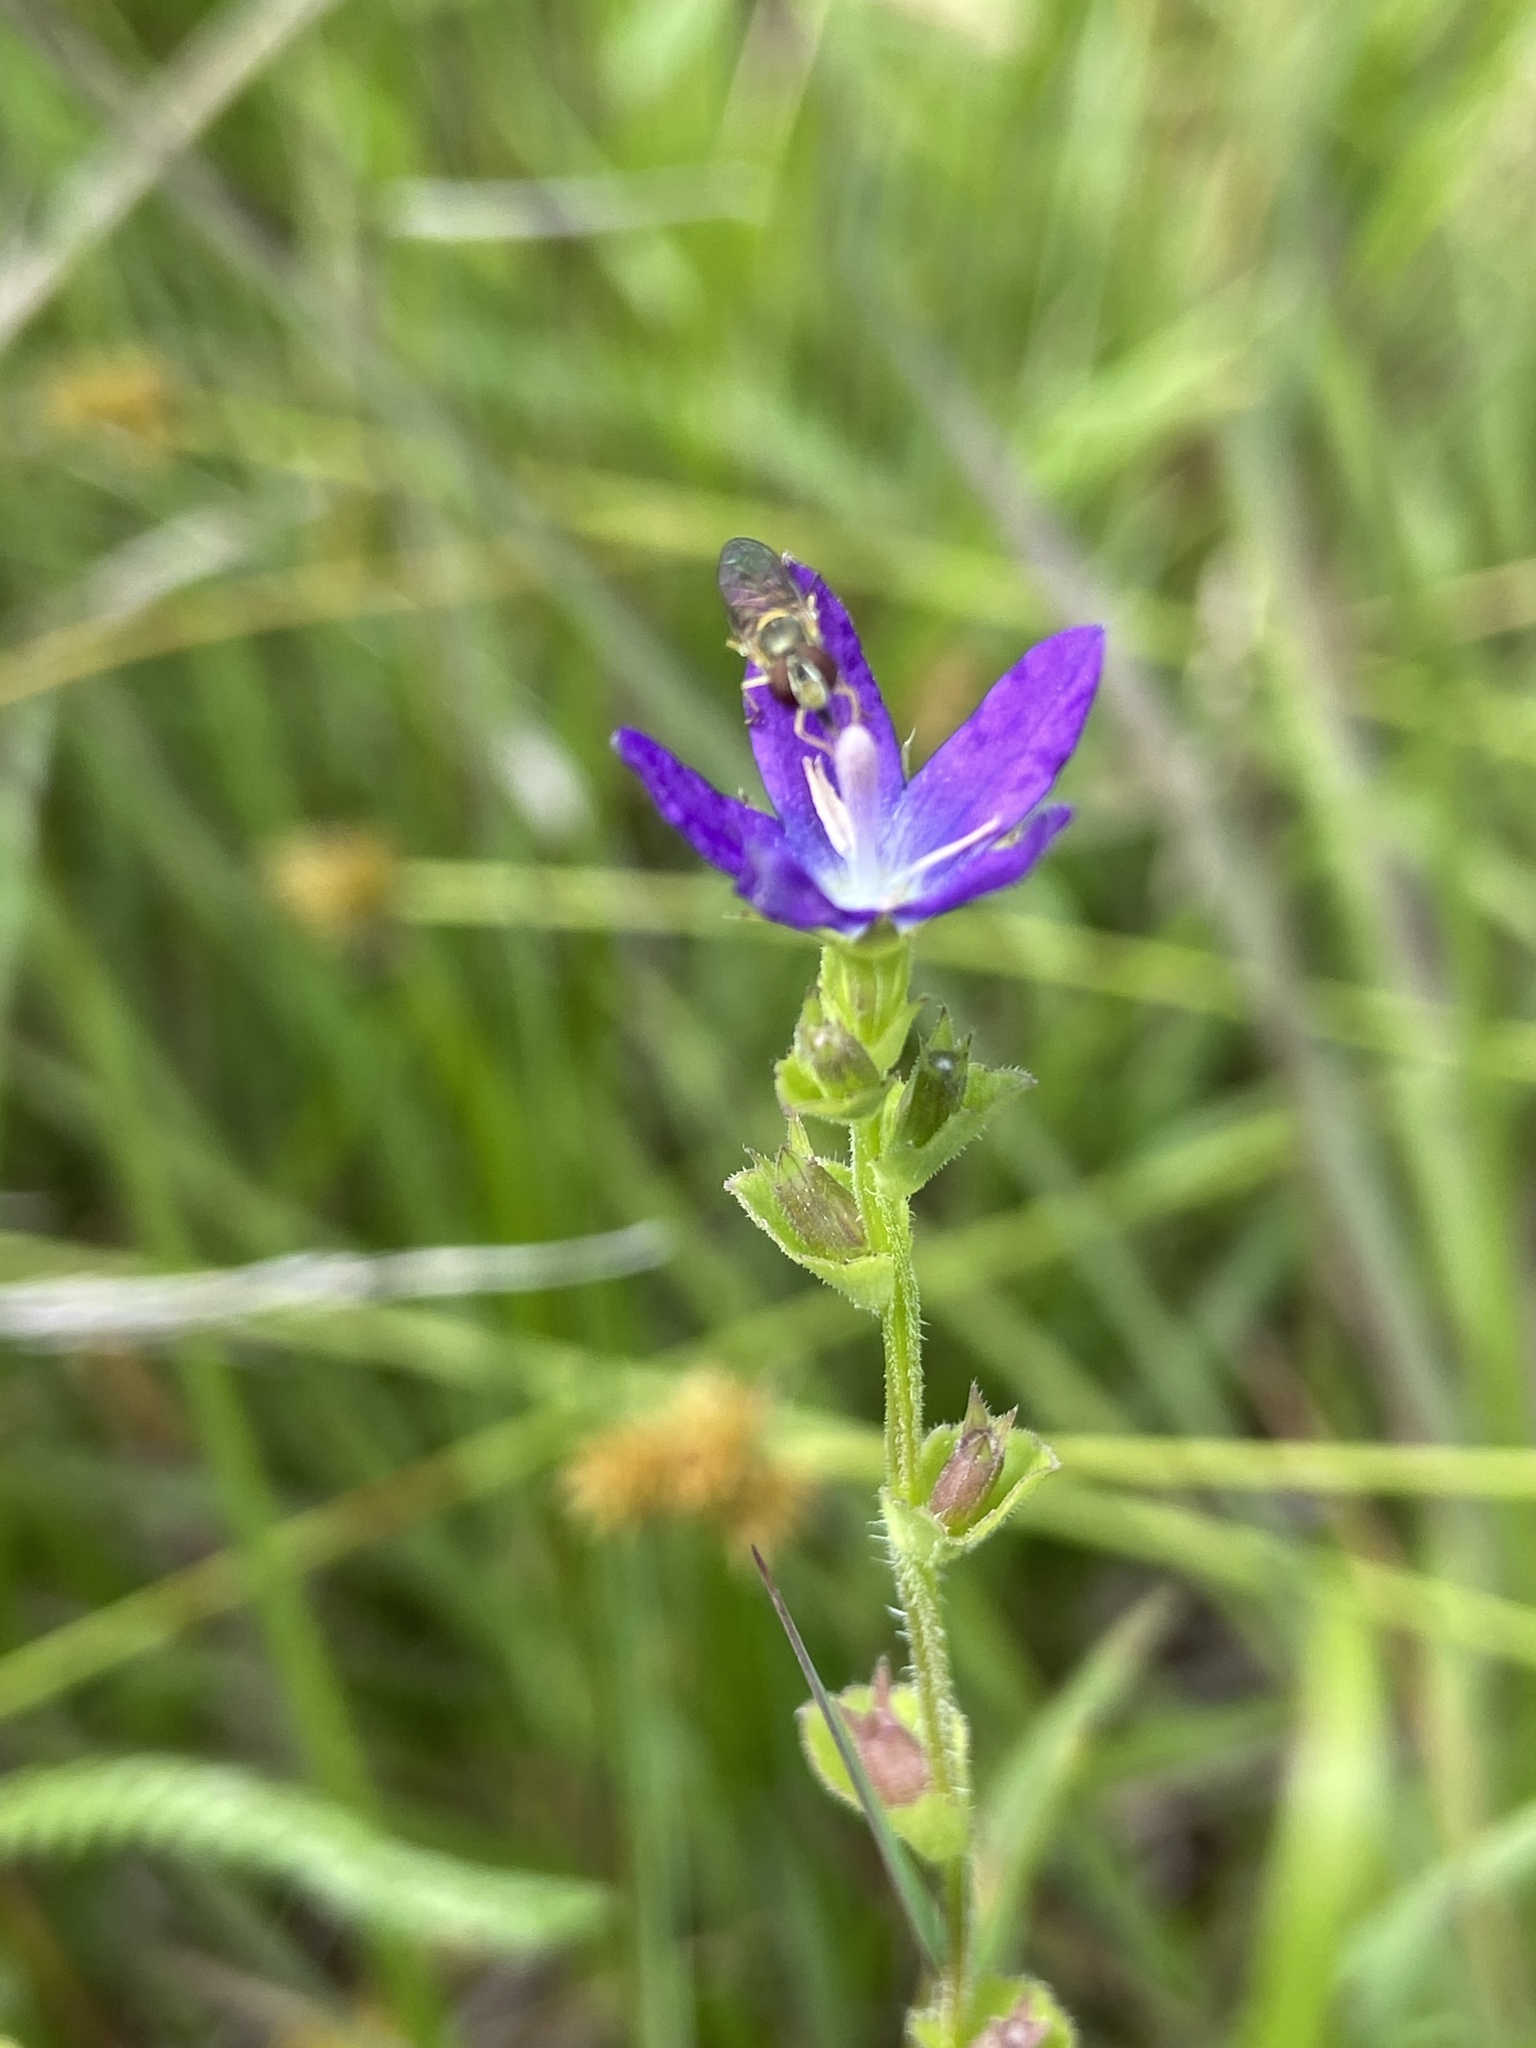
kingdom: Plantae
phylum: Tracheophyta
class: Magnoliopsida
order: Asterales
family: Campanulaceae
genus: Triodanis
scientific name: Triodanis perfoliata
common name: Clasping venus' looking-glass
